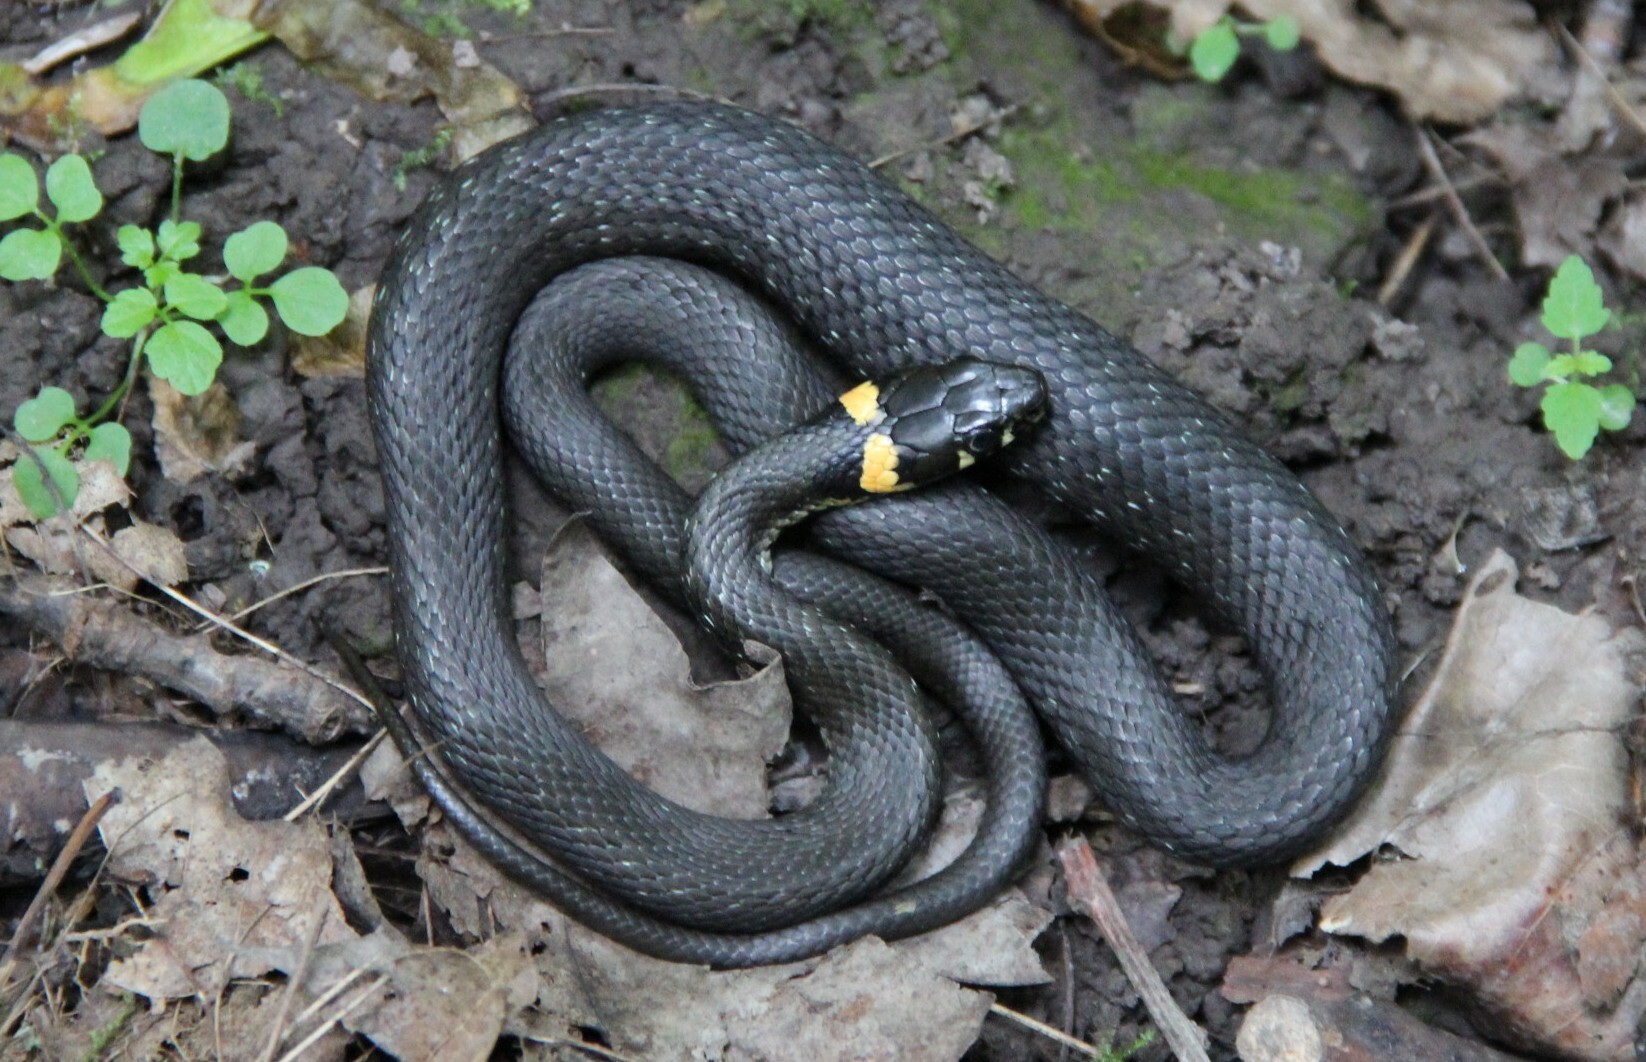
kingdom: Animalia
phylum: Chordata
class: Squamata
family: Colubridae
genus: Natrix
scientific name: Natrix natrix
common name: Grass snake
